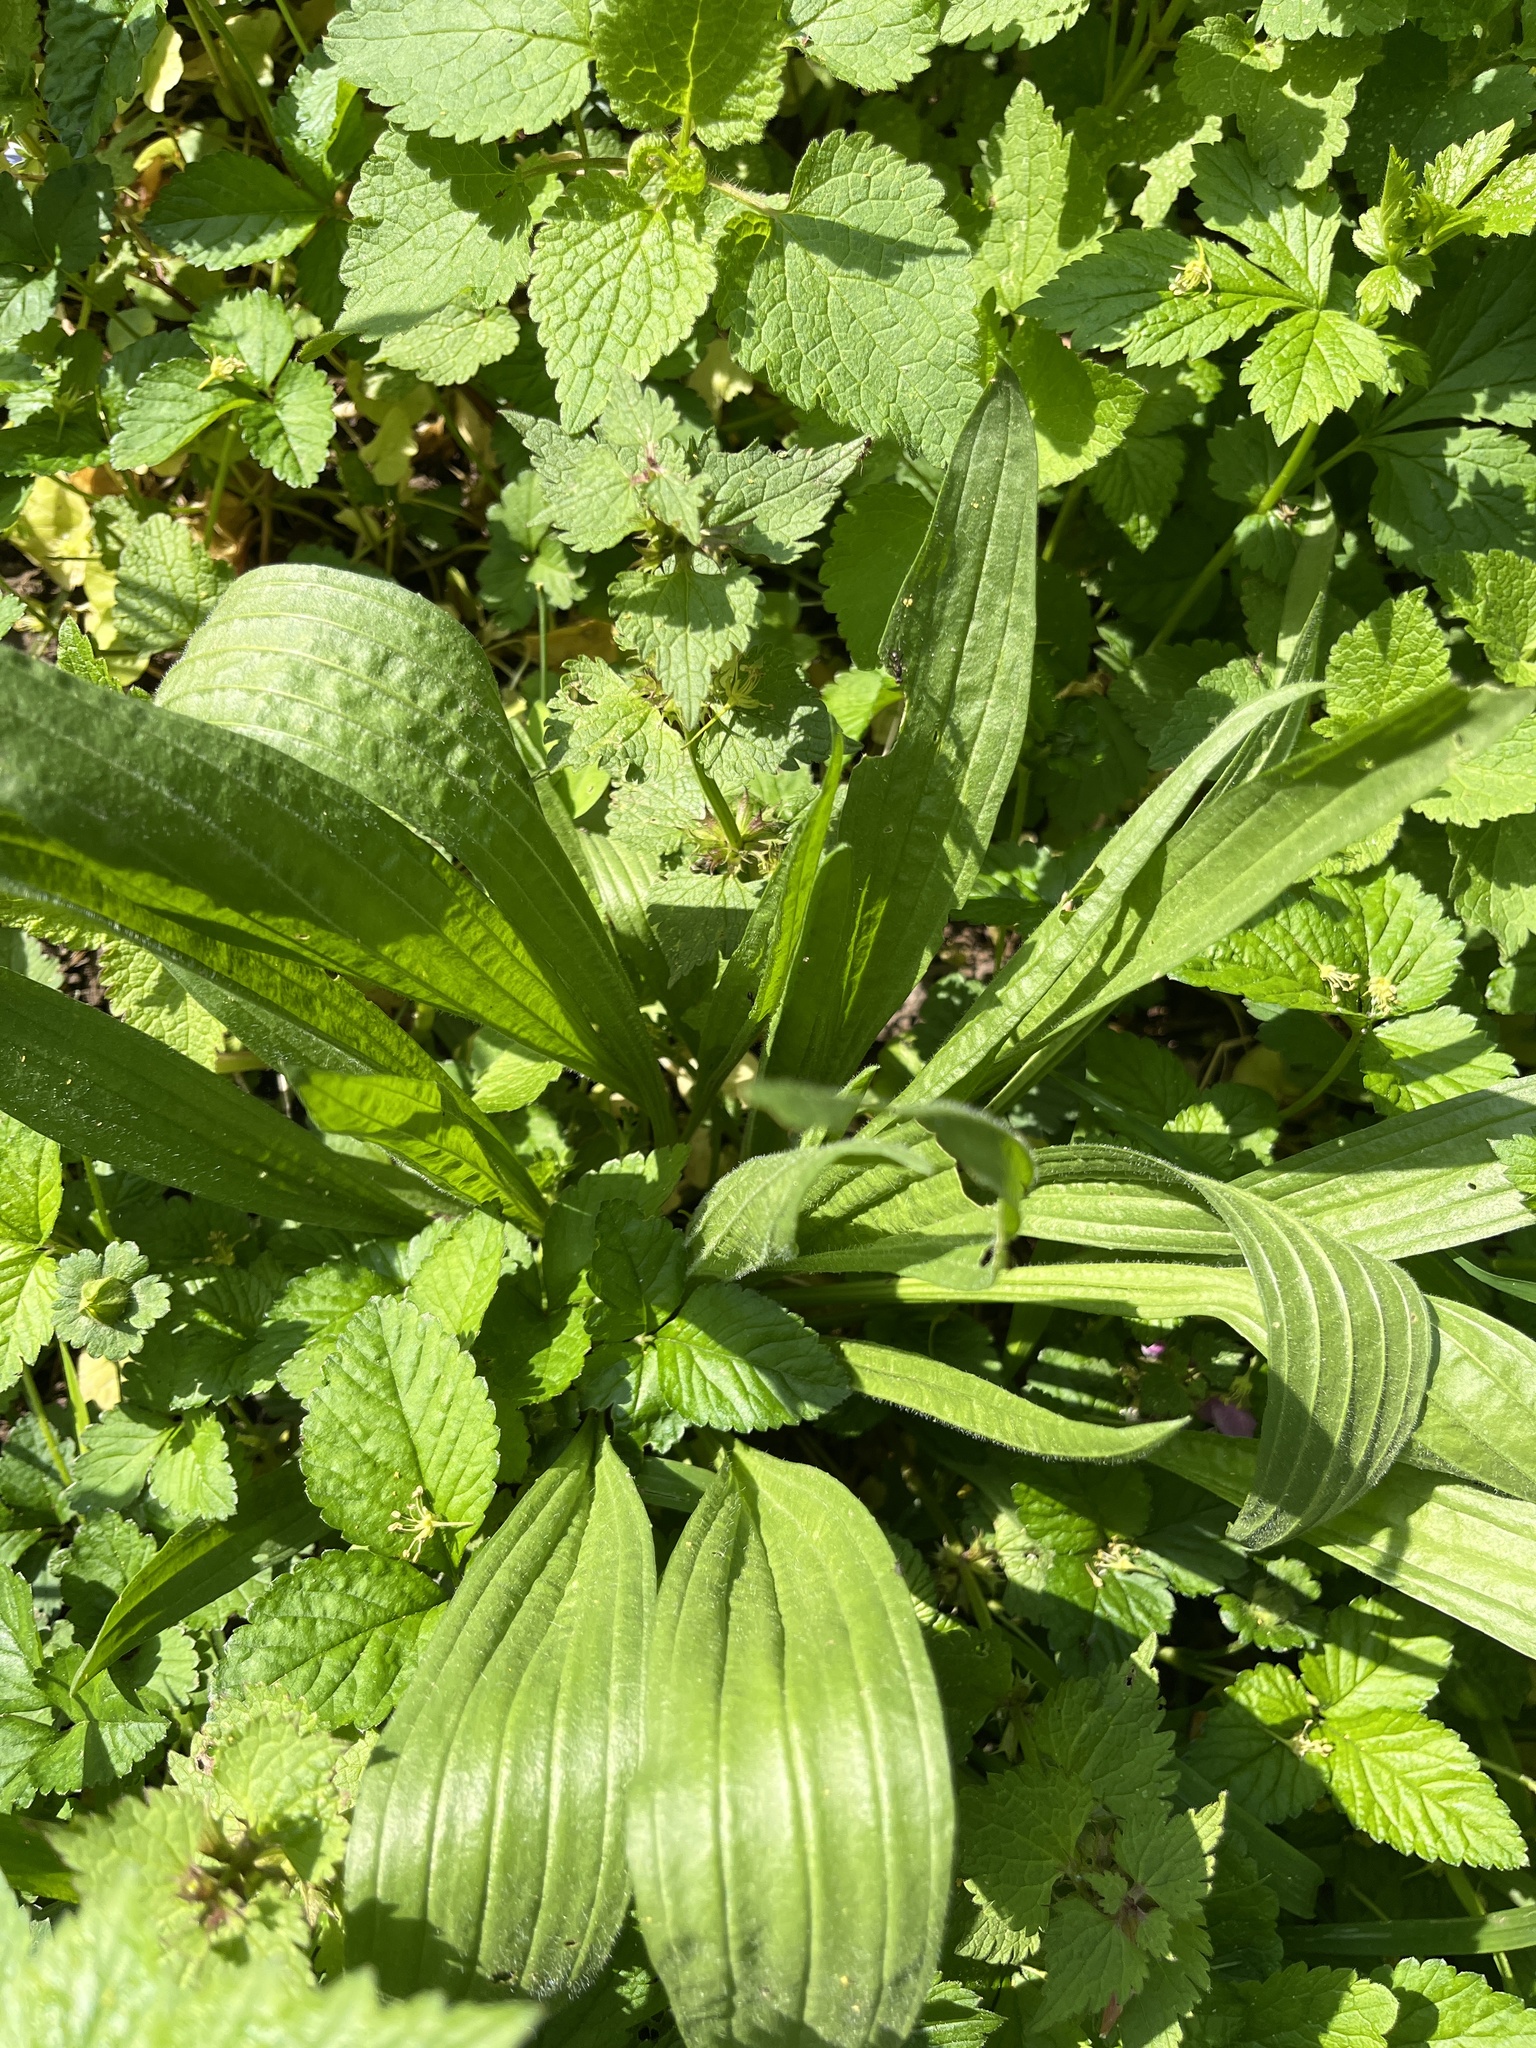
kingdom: Plantae
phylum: Tracheophyta
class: Magnoliopsida
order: Lamiales
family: Plantaginaceae
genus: Plantago
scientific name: Plantago lanceolata
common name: Ribwort plantain
